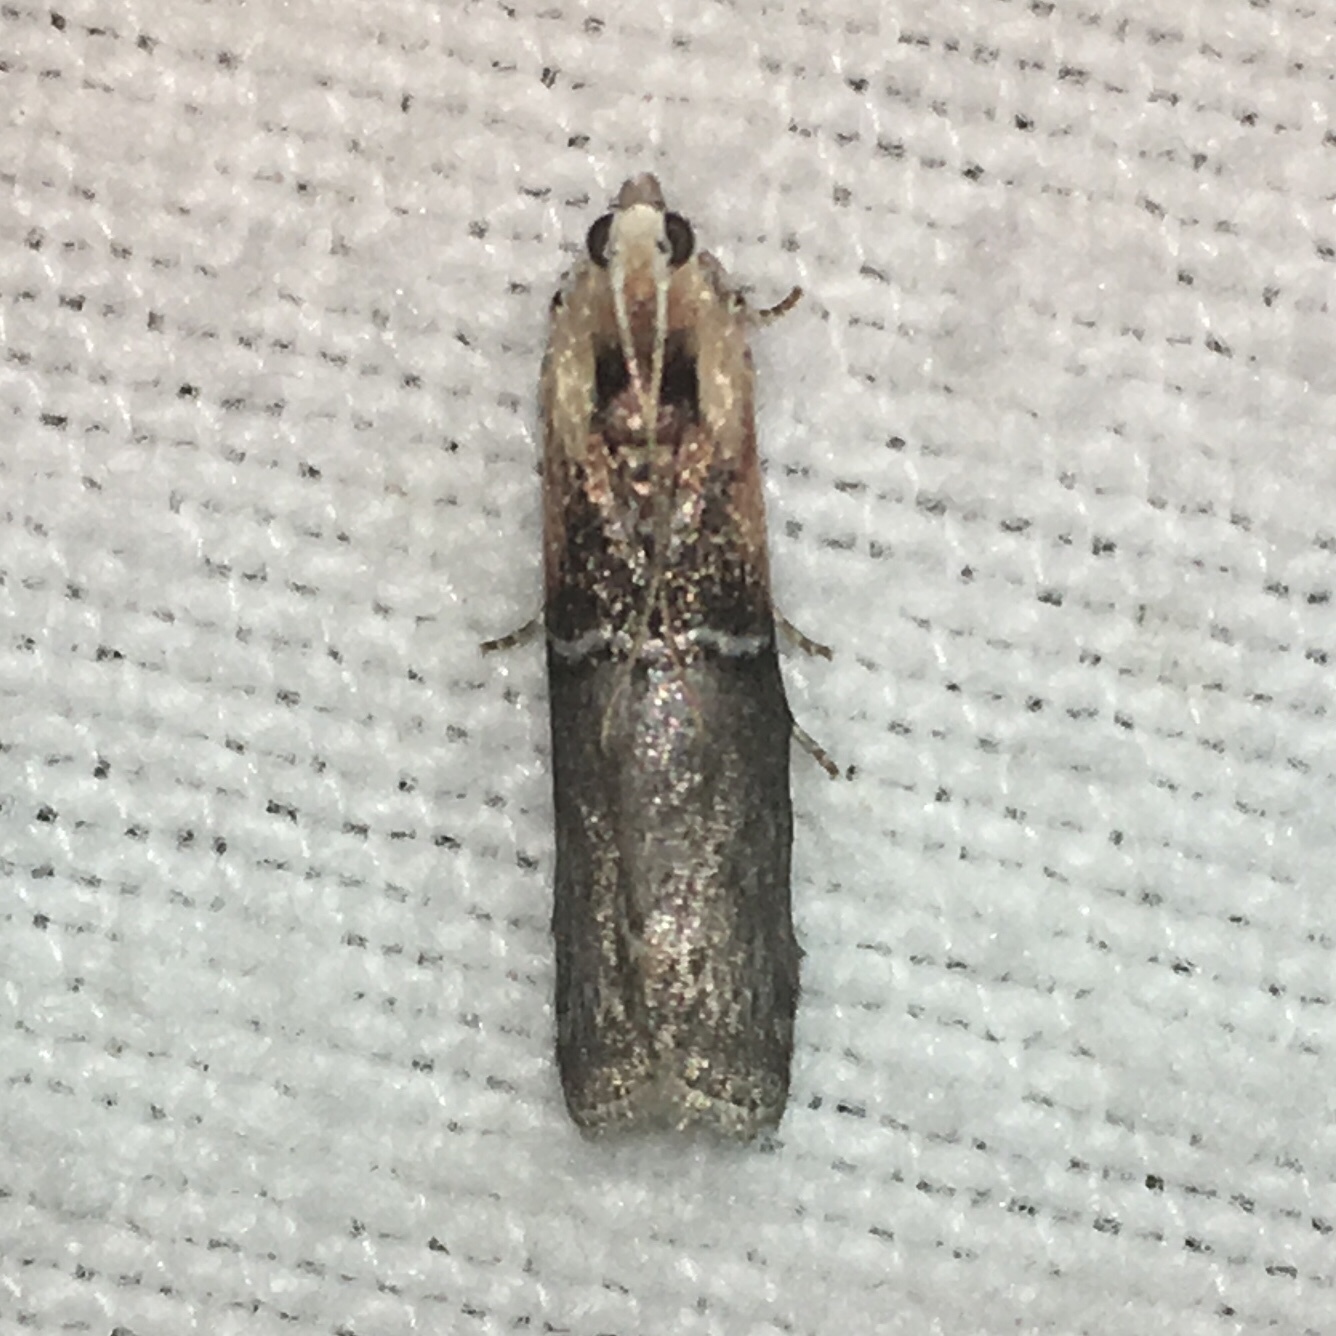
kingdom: Animalia
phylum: Arthropoda
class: Insecta
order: Lepidoptera
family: Pyralidae
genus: Sciota
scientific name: Sciota basilaris
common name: Yellow-shouldered leafroller
